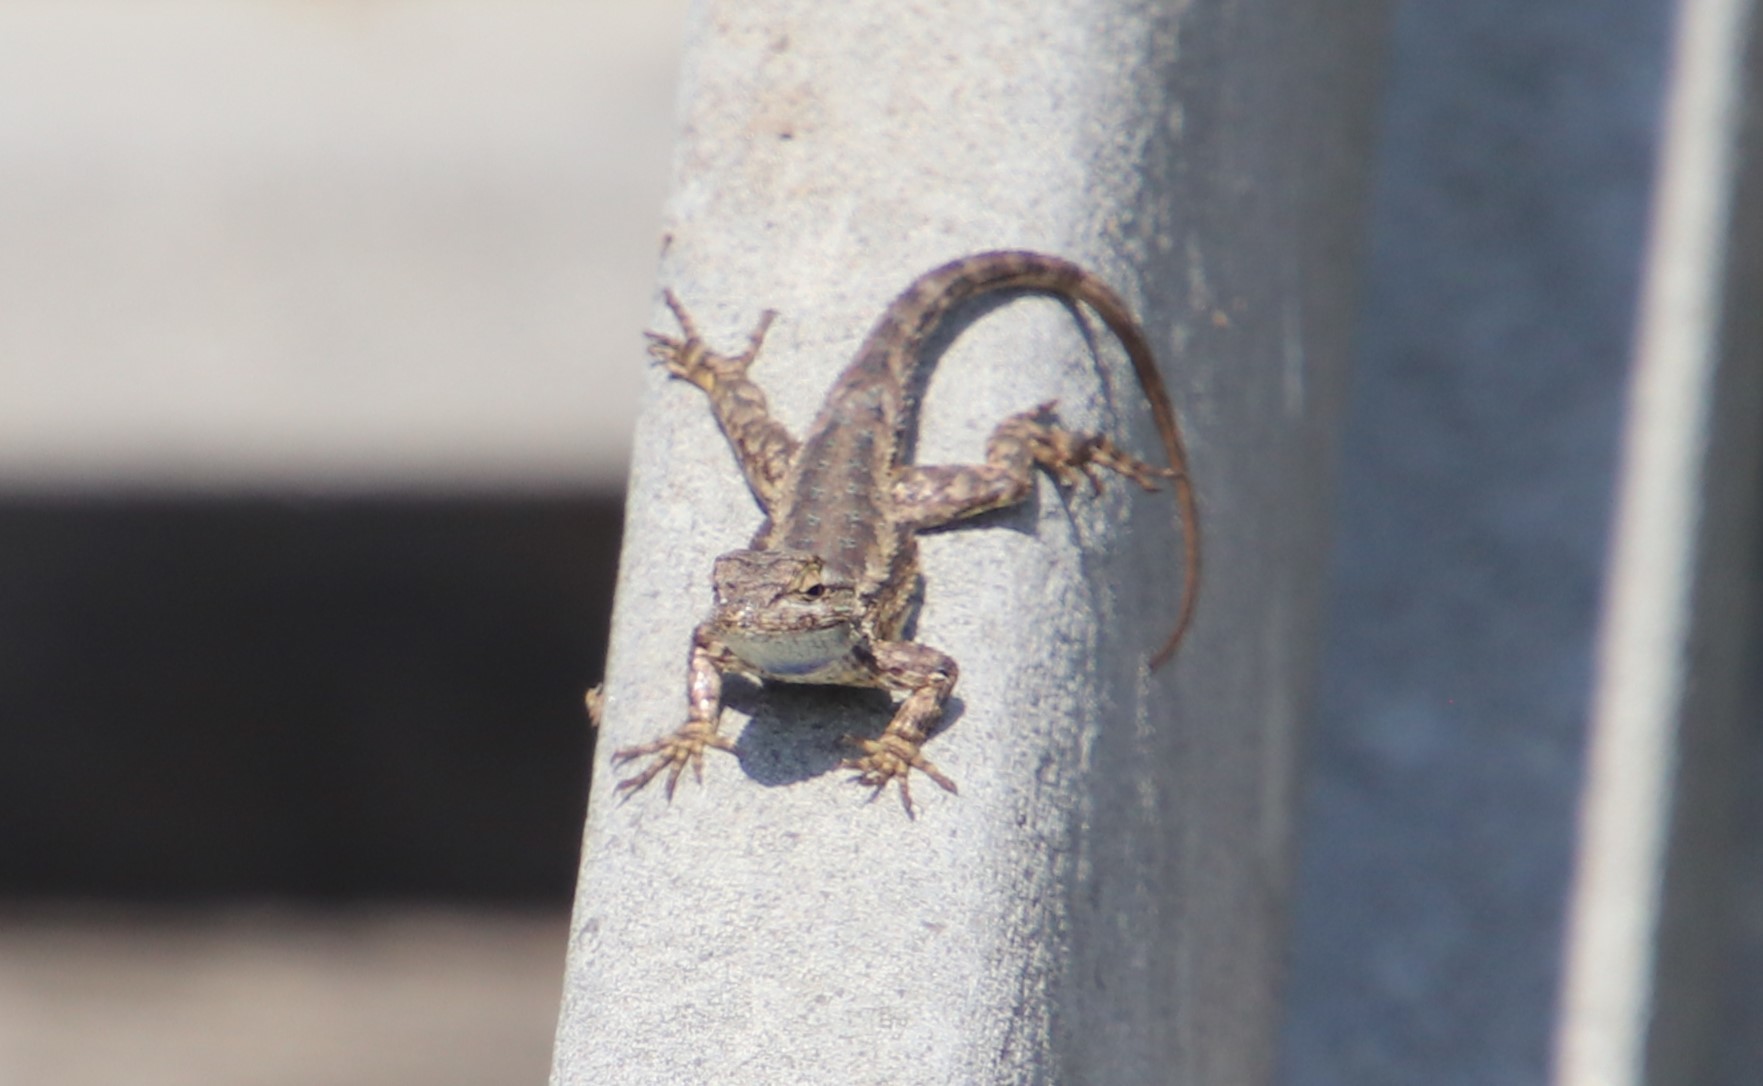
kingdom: Animalia
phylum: Chordata
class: Squamata
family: Phrynosomatidae
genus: Sceloporus
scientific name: Sceloporus occidentalis
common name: Western fence lizard
